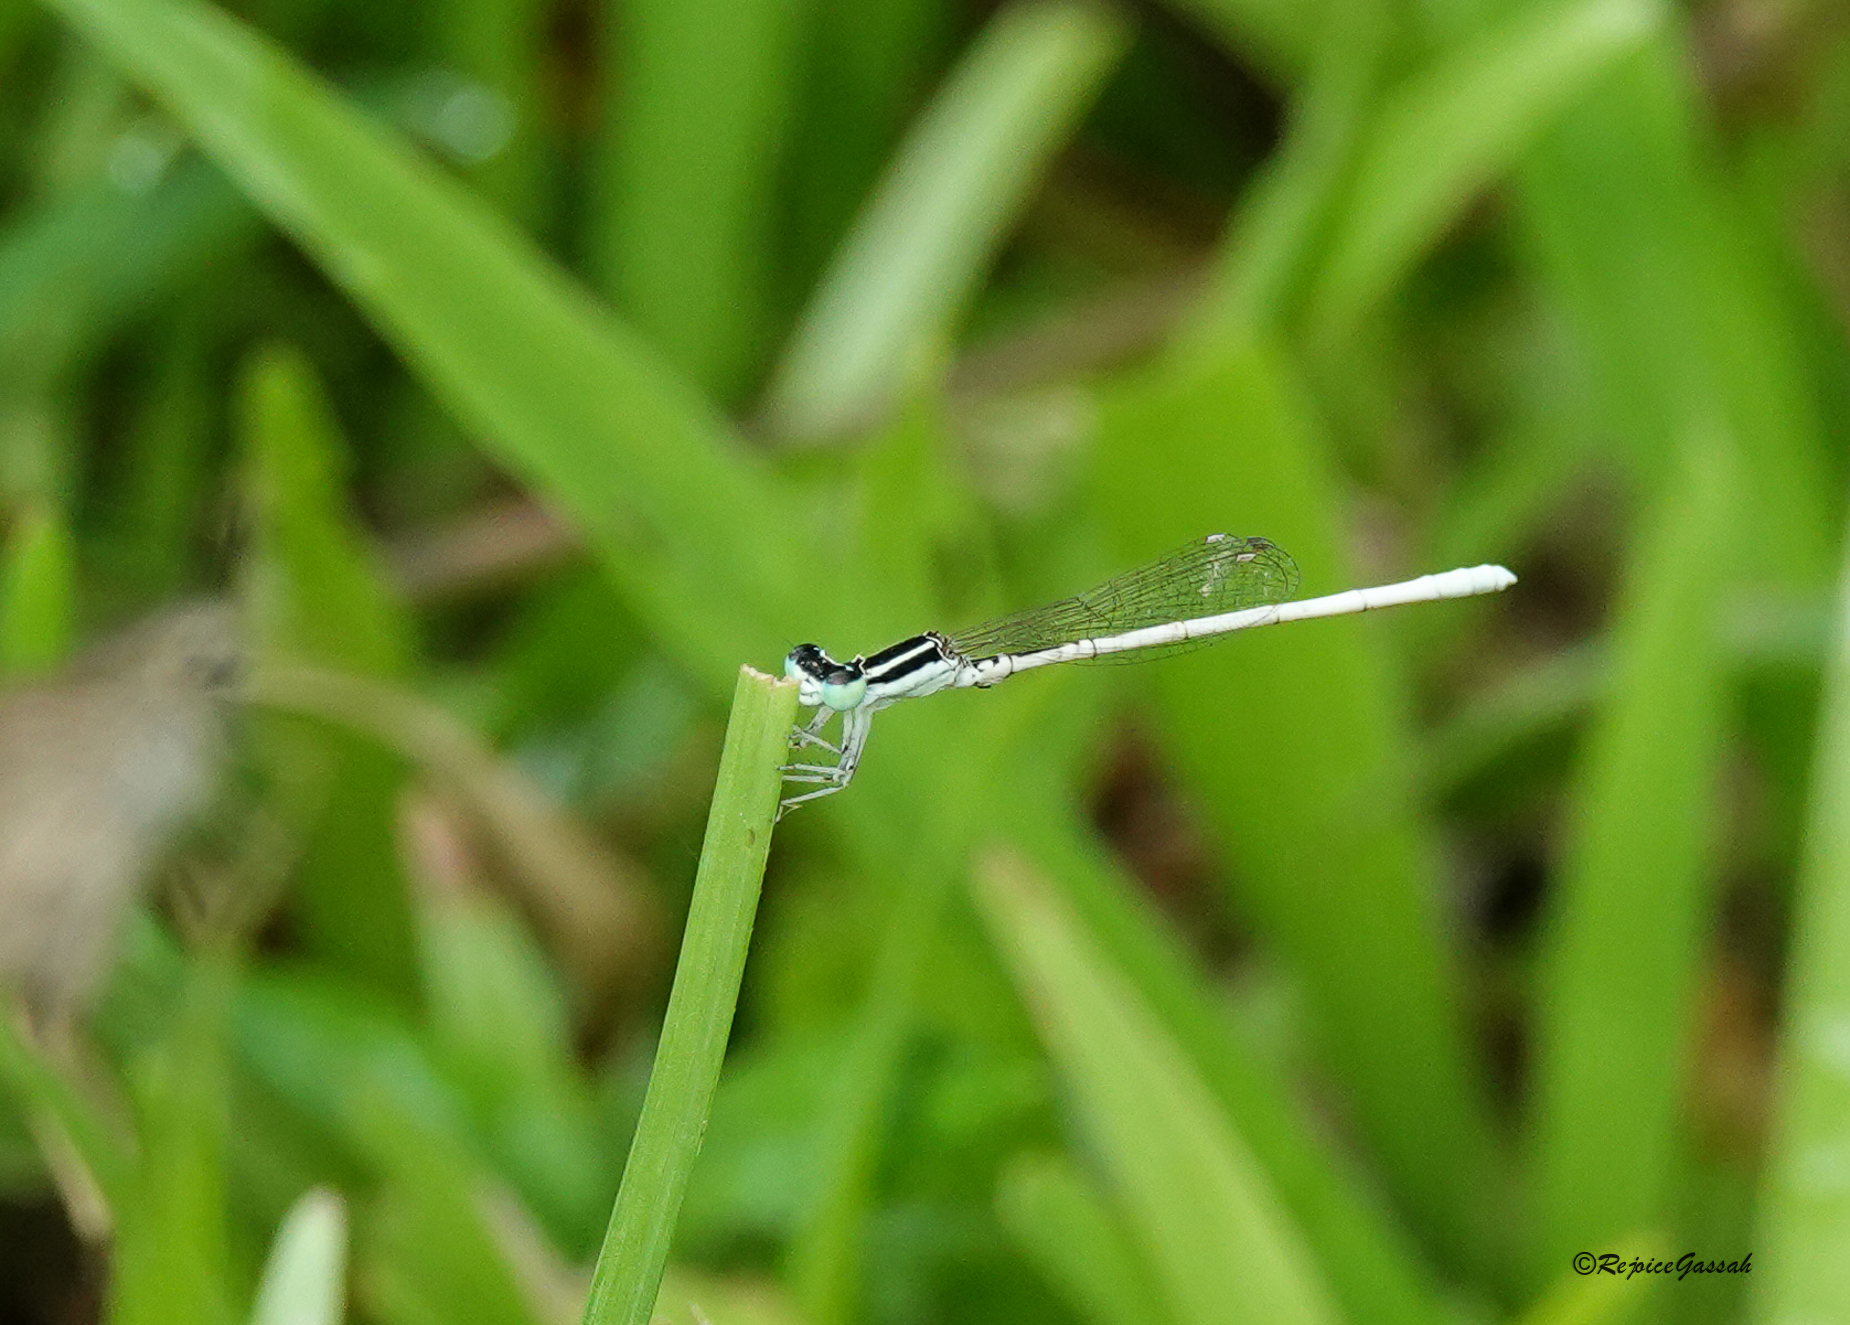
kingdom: Animalia
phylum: Arthropoda
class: Insecta
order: Odonata
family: Coenagrionidae
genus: Agriocnemis
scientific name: Agriocnemis lacteola
